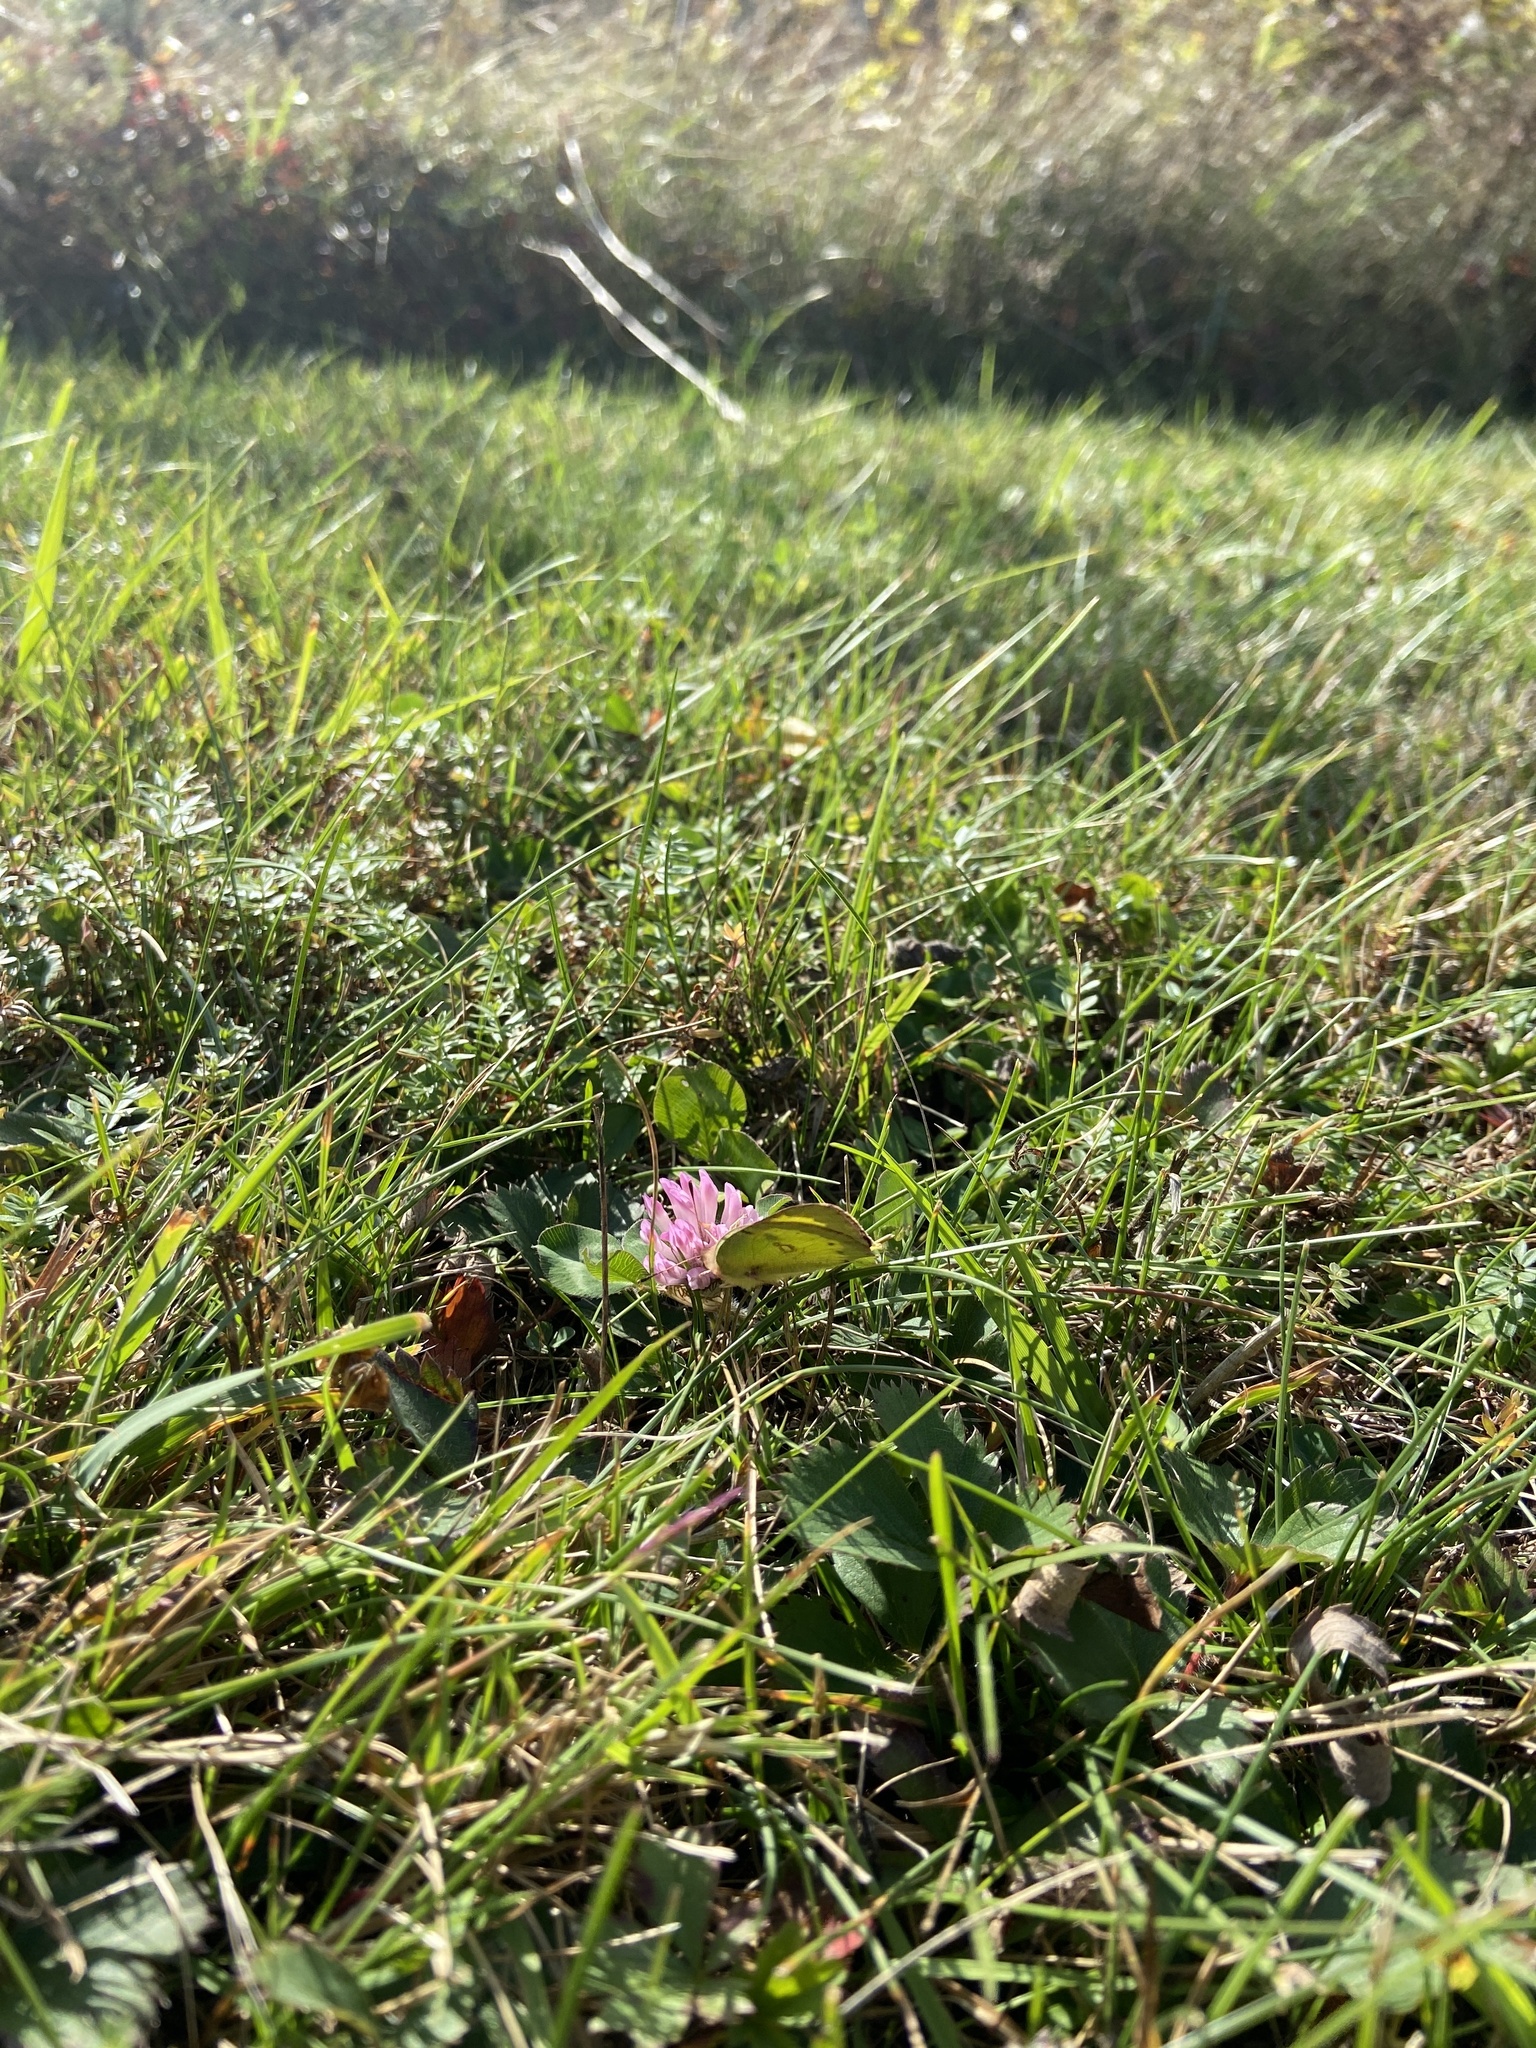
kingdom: Animalia
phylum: Arthropoda
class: Insecta
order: Lepidoptera
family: Pieridae
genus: Colias
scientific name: Colias philodice
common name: Clouded sulphur
